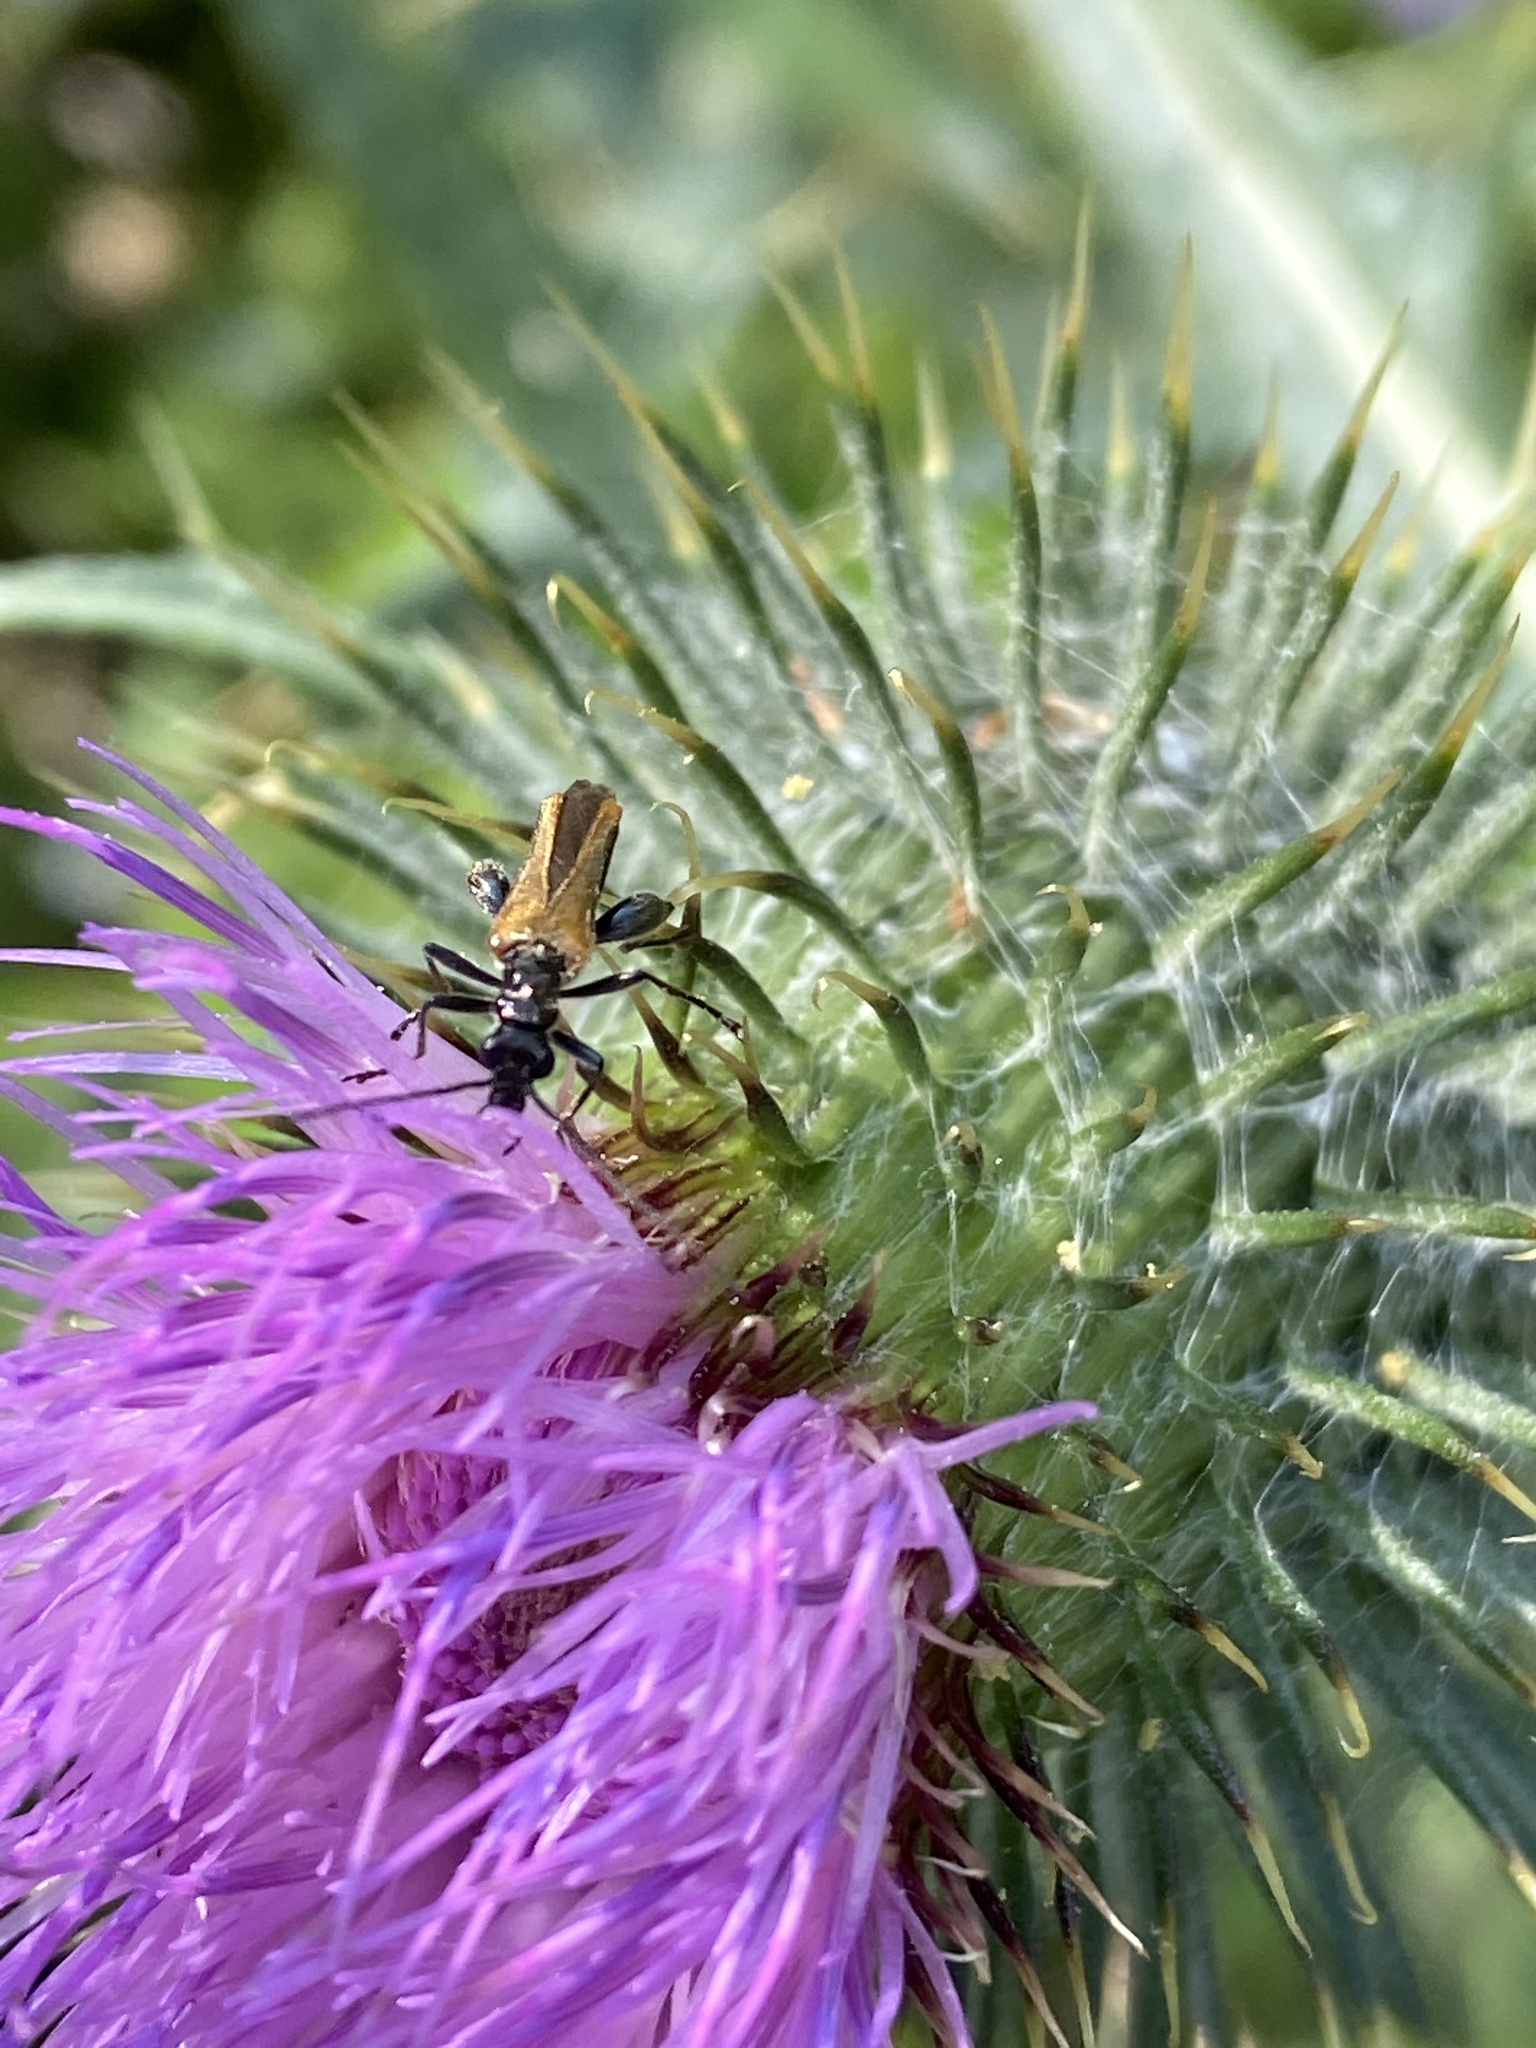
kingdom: Animalia
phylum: Arthropoda
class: Insecta
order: Coleoptera
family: Oedemeridae
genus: Oedemera
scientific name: Oedemera femorata
